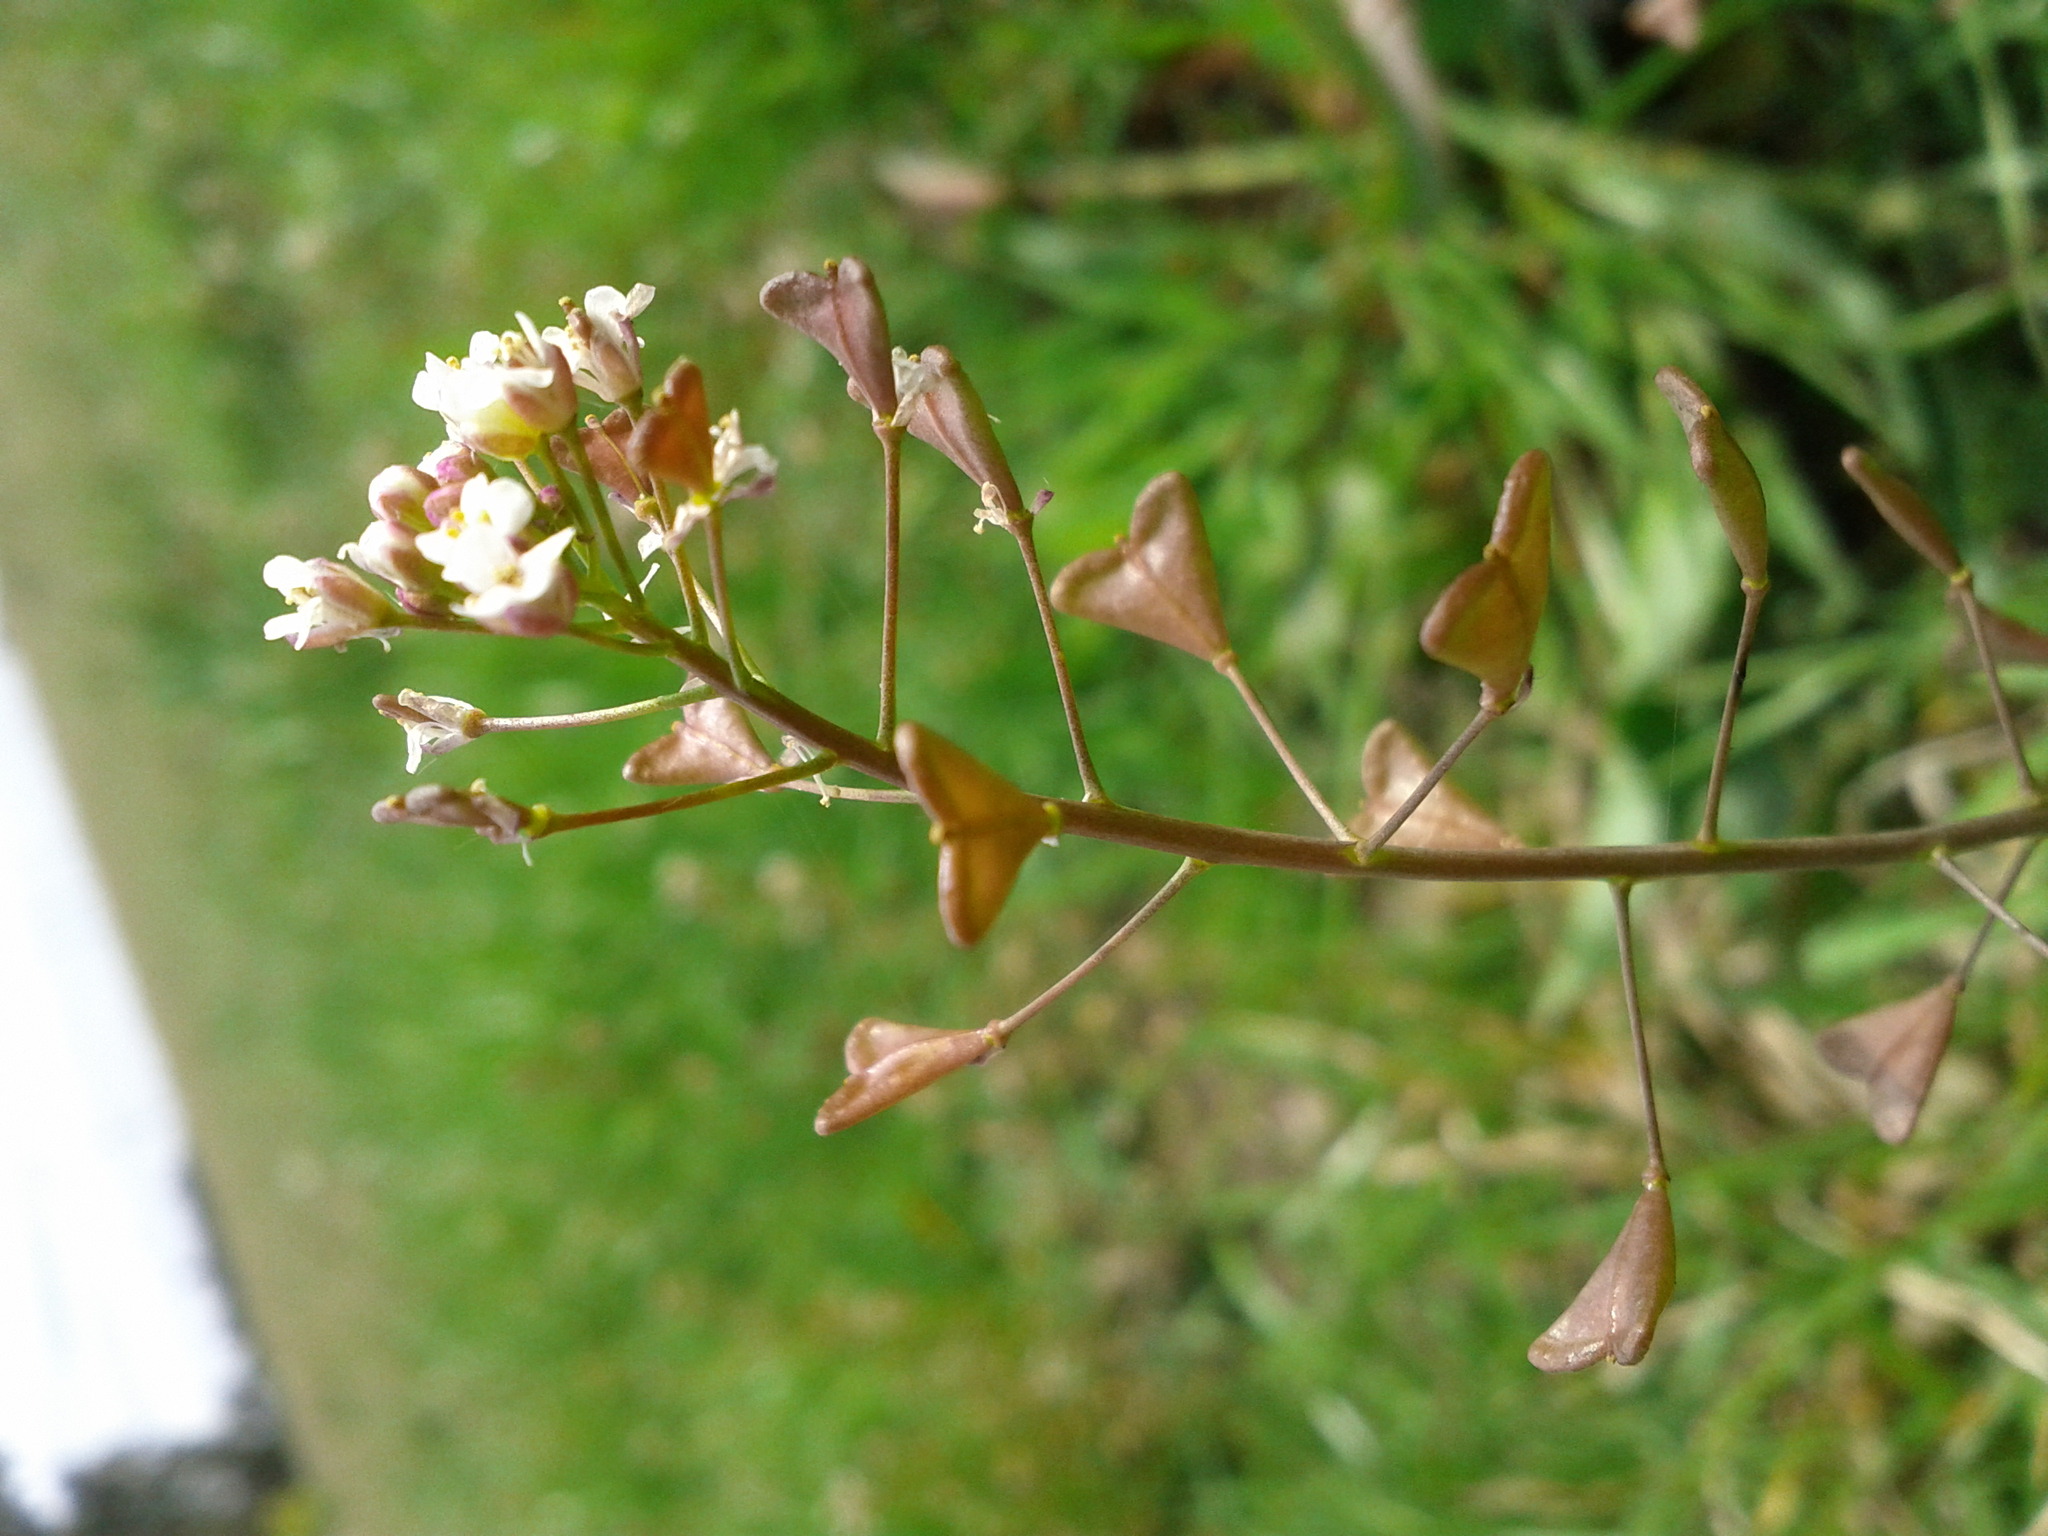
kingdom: Plantae
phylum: Tracheophyta
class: Magnoliopsida
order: Brassicales
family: Brassicaceae
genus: Capsella
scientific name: Capsella bursa-pastoris
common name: Shepherd's purse
